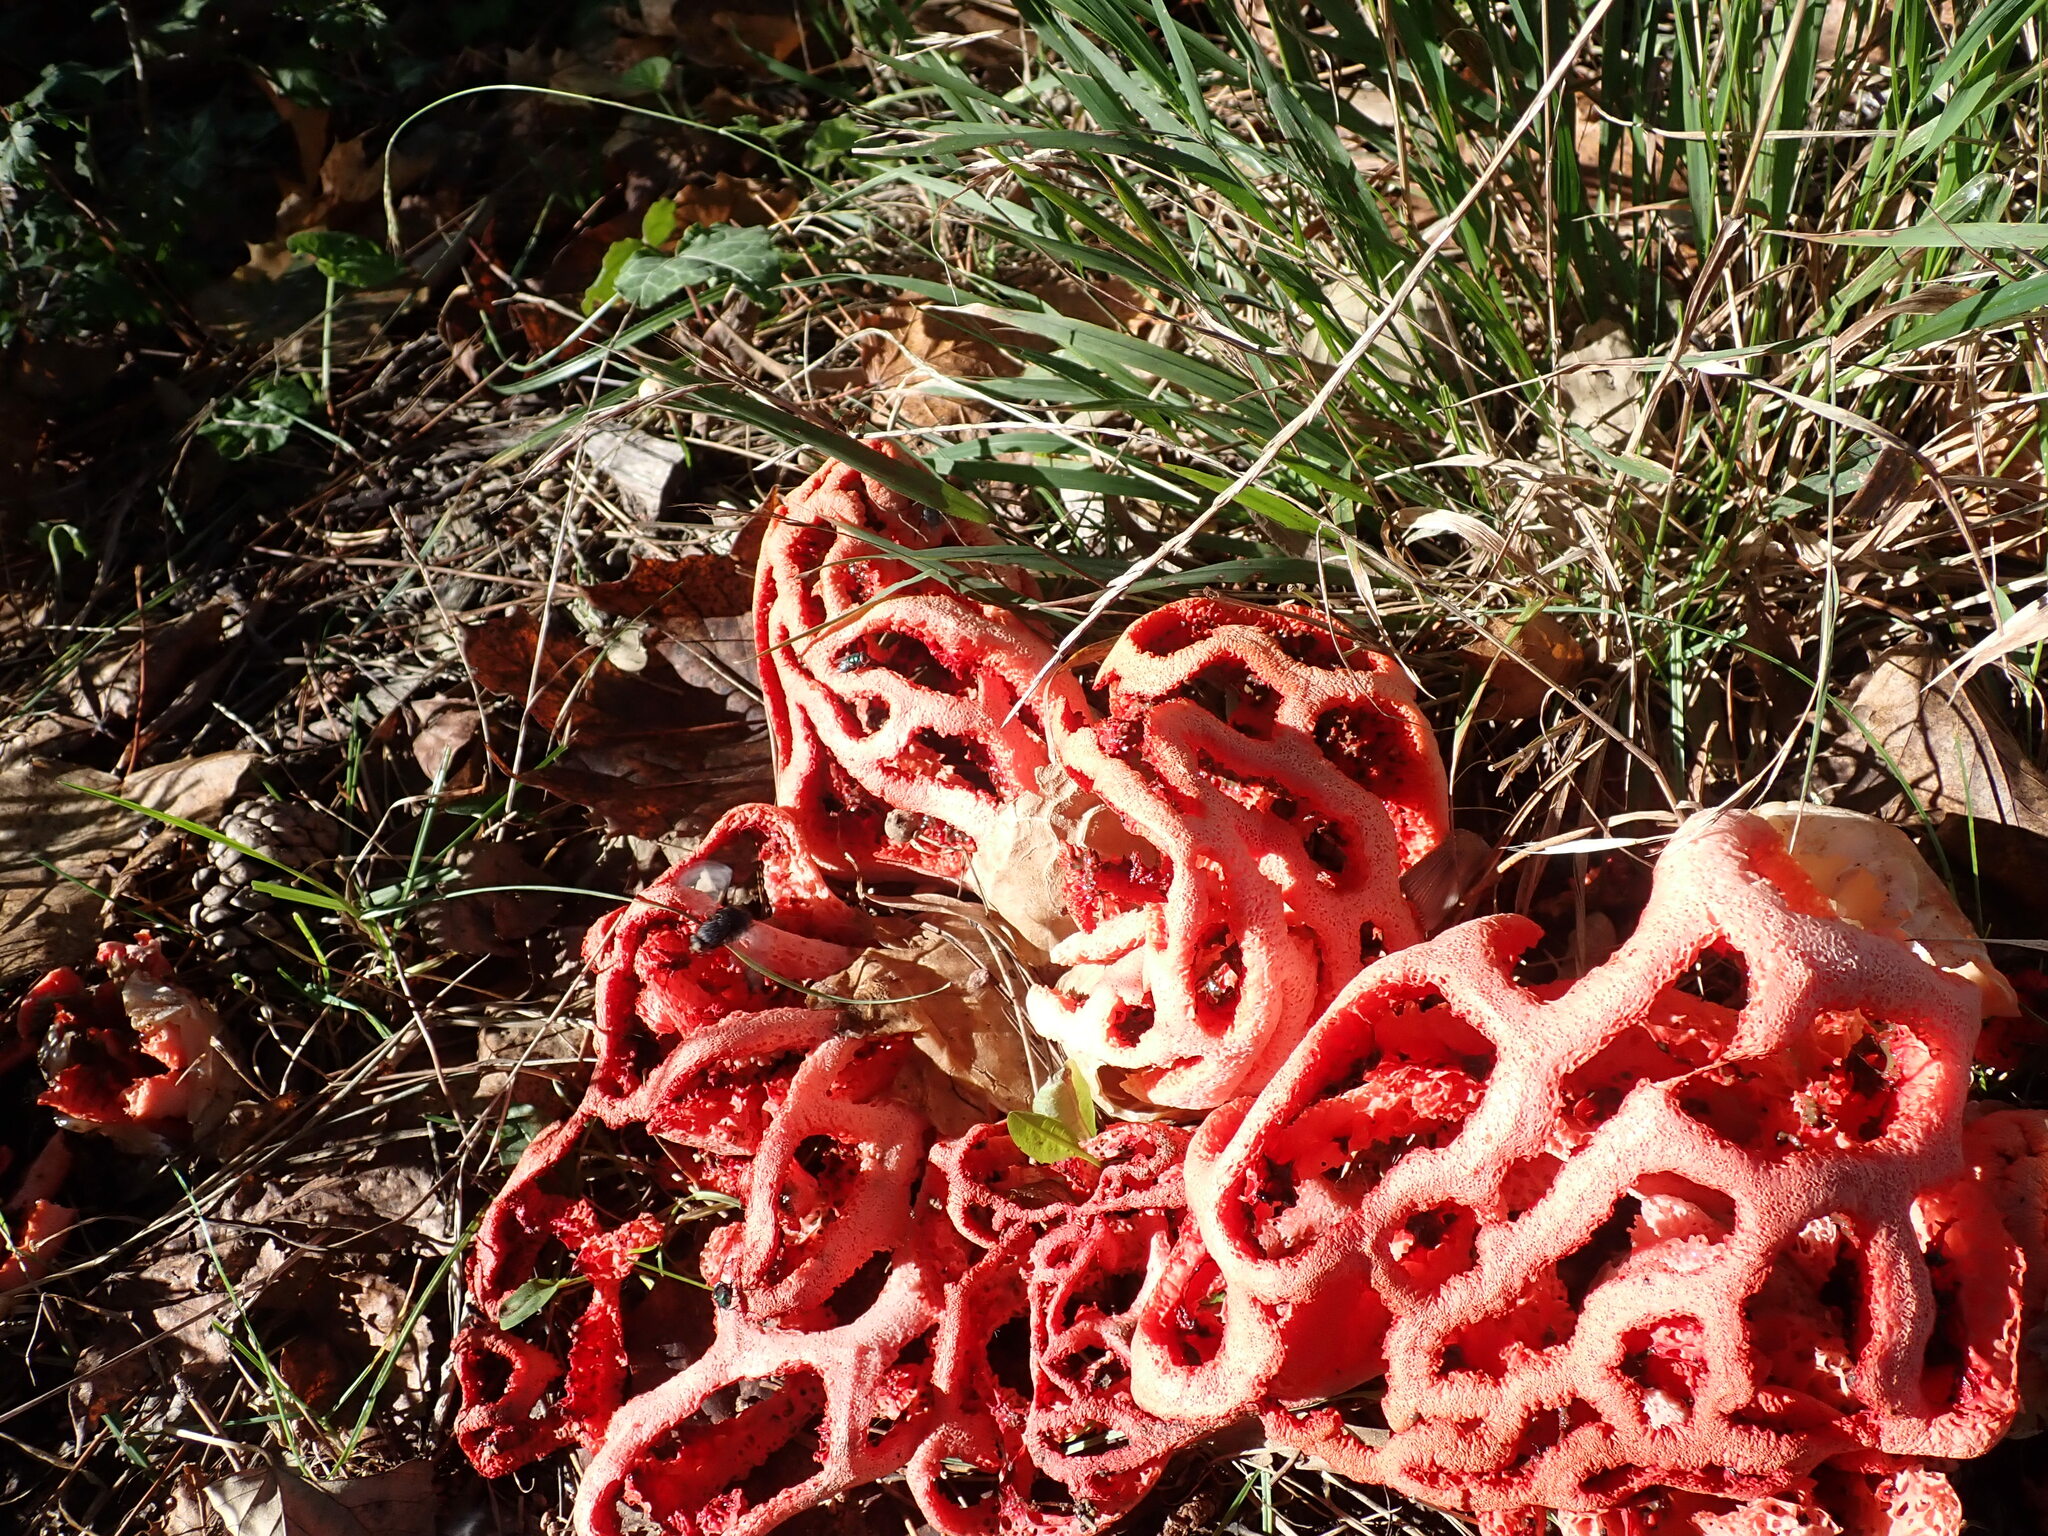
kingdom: Fungi
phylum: Basidiomycota
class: Agaricomycetes
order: Phallales
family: Phallaceae
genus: Clathrus
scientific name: Clathrus ruber
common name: Red cage
